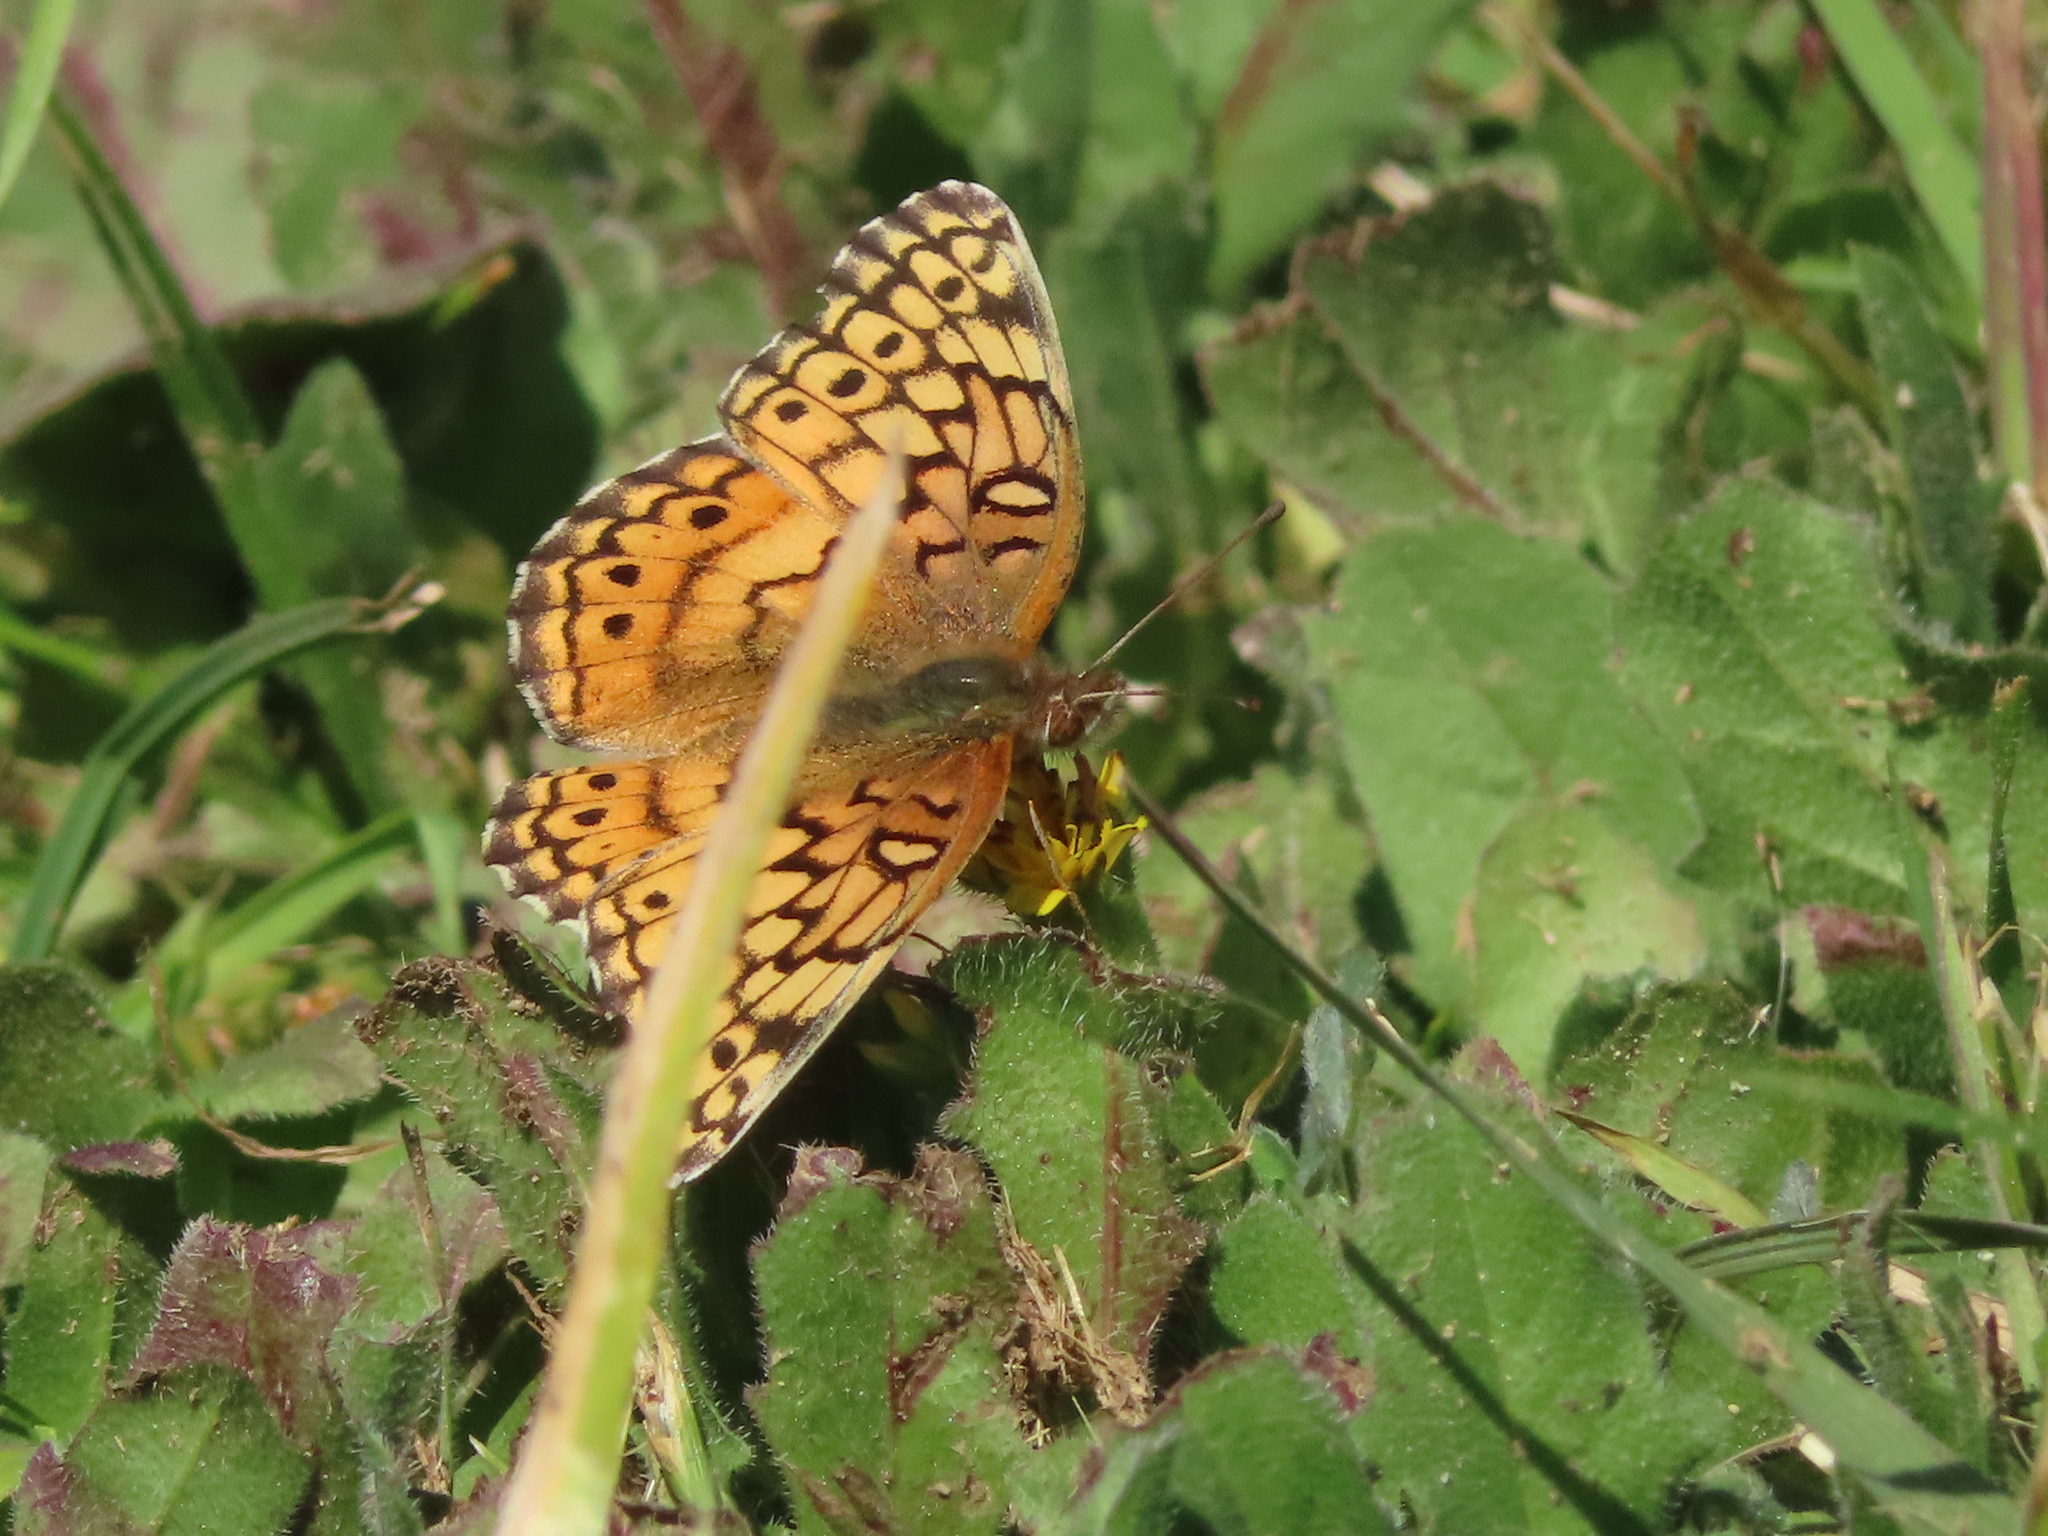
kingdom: Animalia
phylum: Arthropoda
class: Insecta
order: Lepidoptera
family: Nymphalidae
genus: Euptoieta
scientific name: Euptoieta claudia
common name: Variegated fritillary
